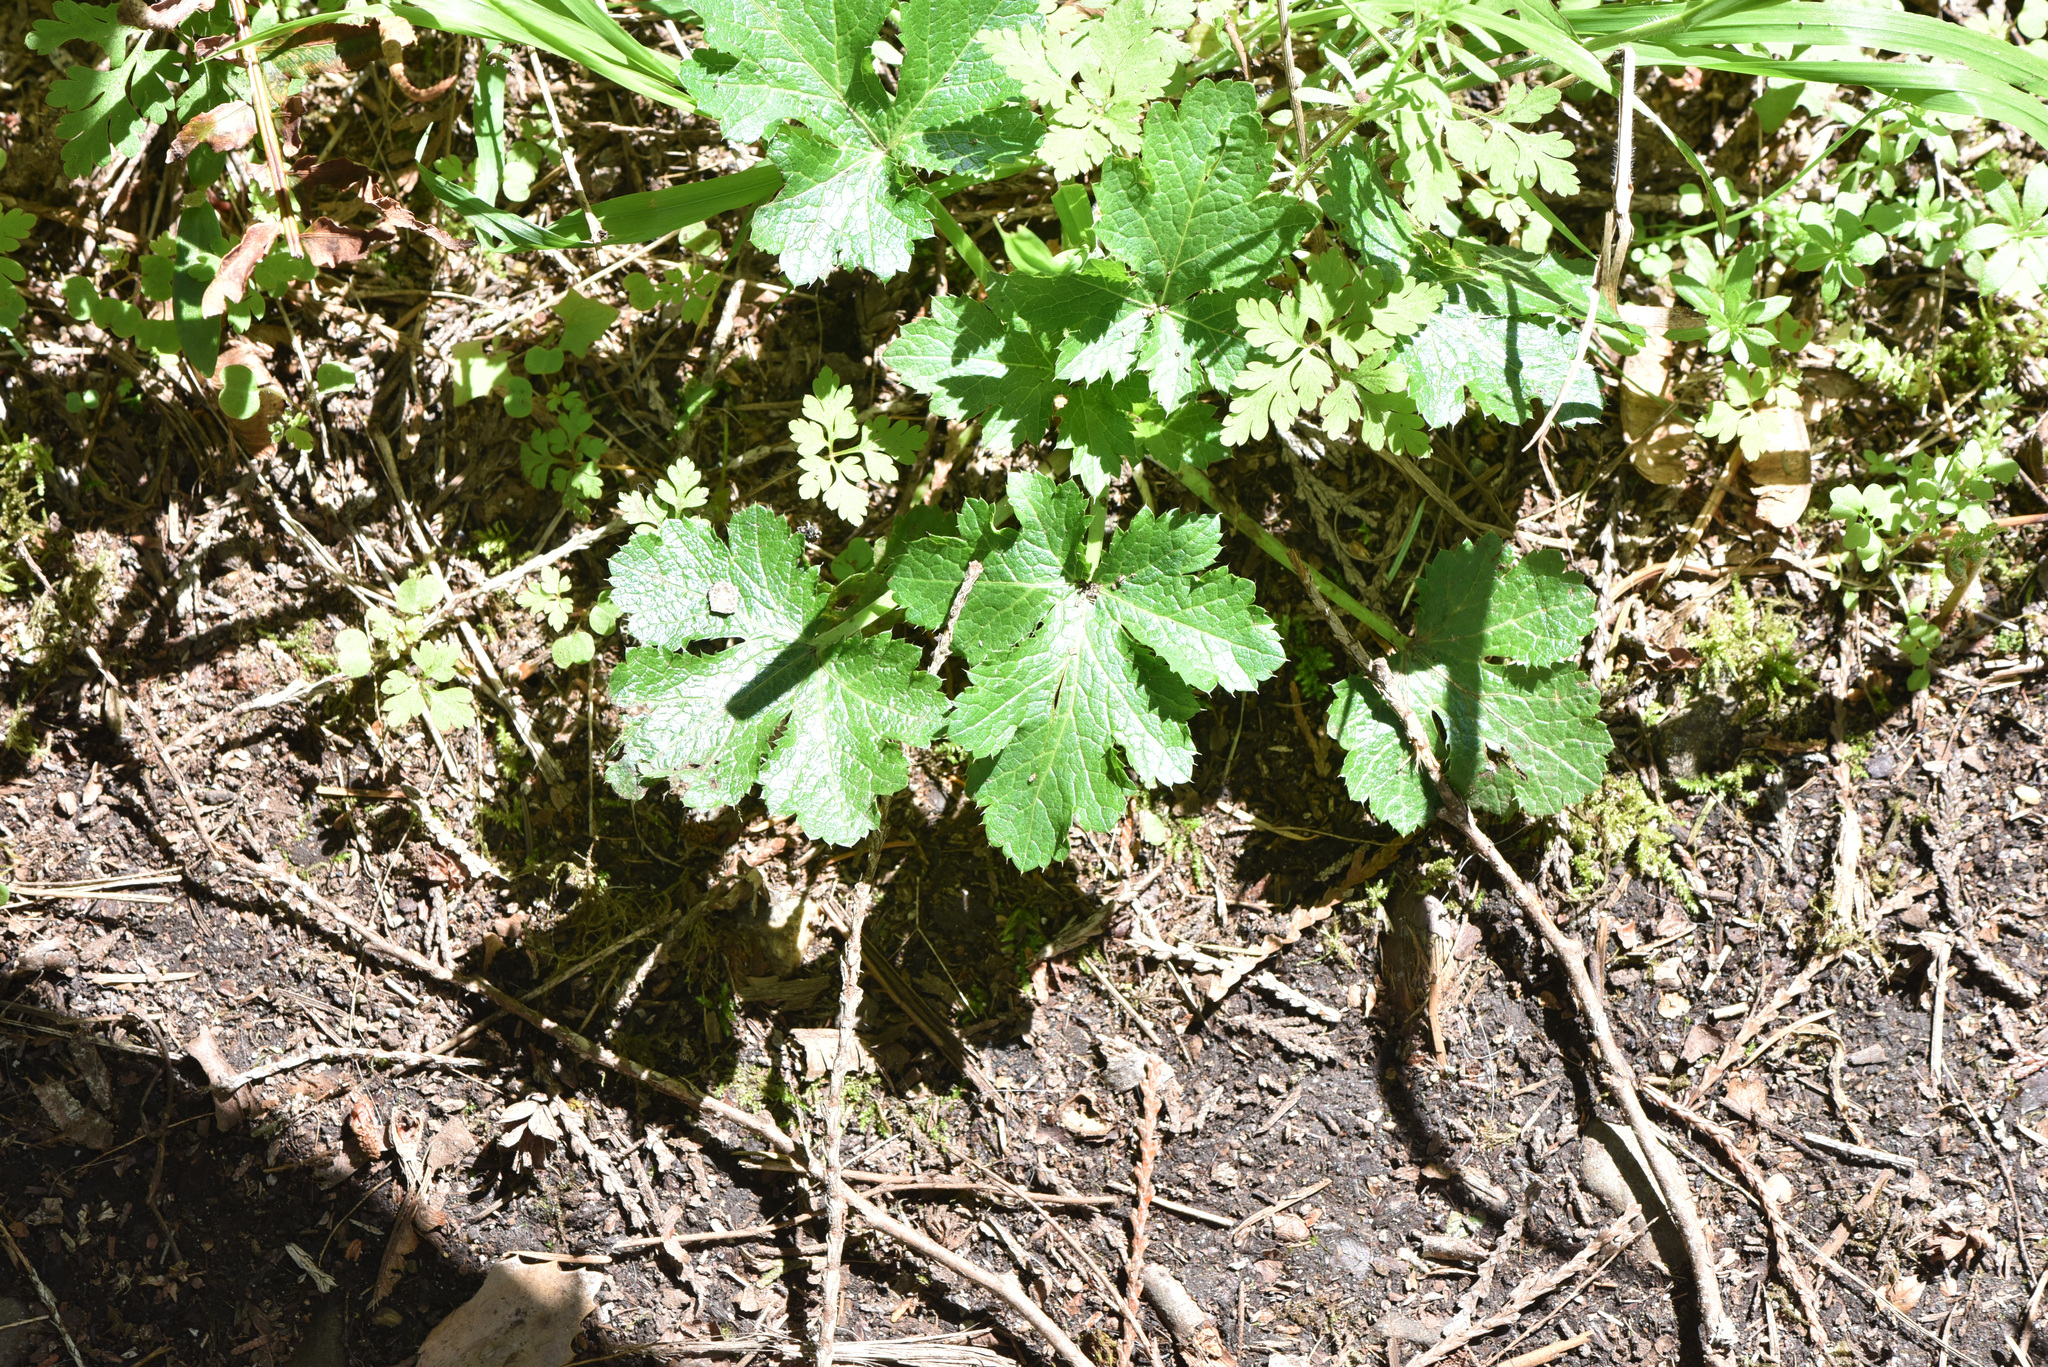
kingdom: Plantae
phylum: Tracheophyta
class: Magnoliopsida
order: Apiales
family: Apiaceae
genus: Sanicula
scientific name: Sanicula crassicaulis
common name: Western snakeroot
